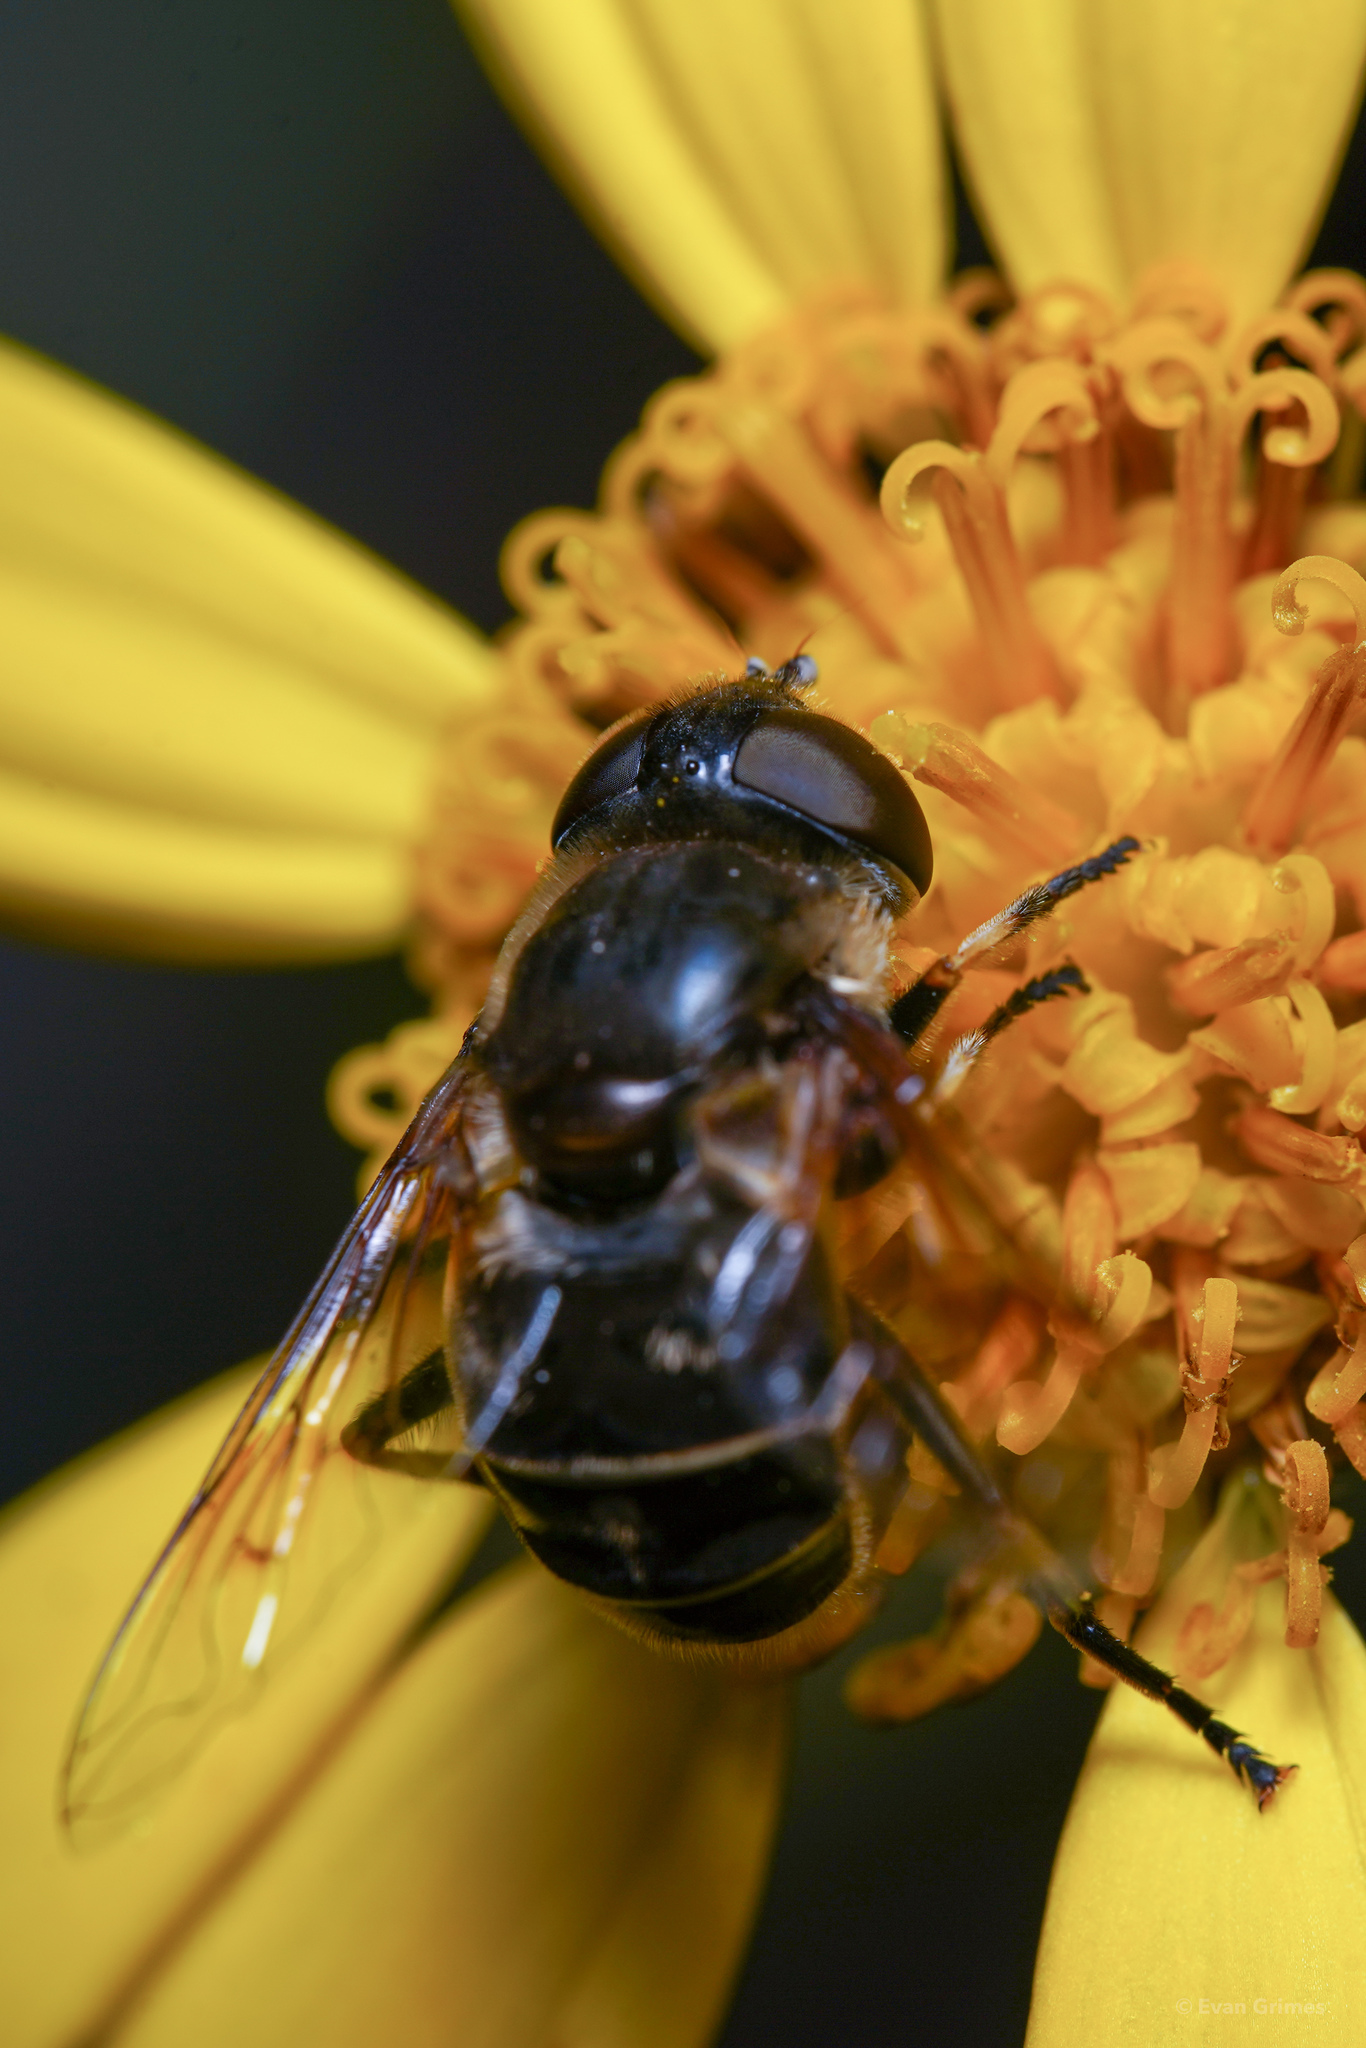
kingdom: Animalia
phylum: Arthropoda
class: Insecta
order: Diptera
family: Syrphidae
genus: Eristalis
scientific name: Eristalis dimidiata
